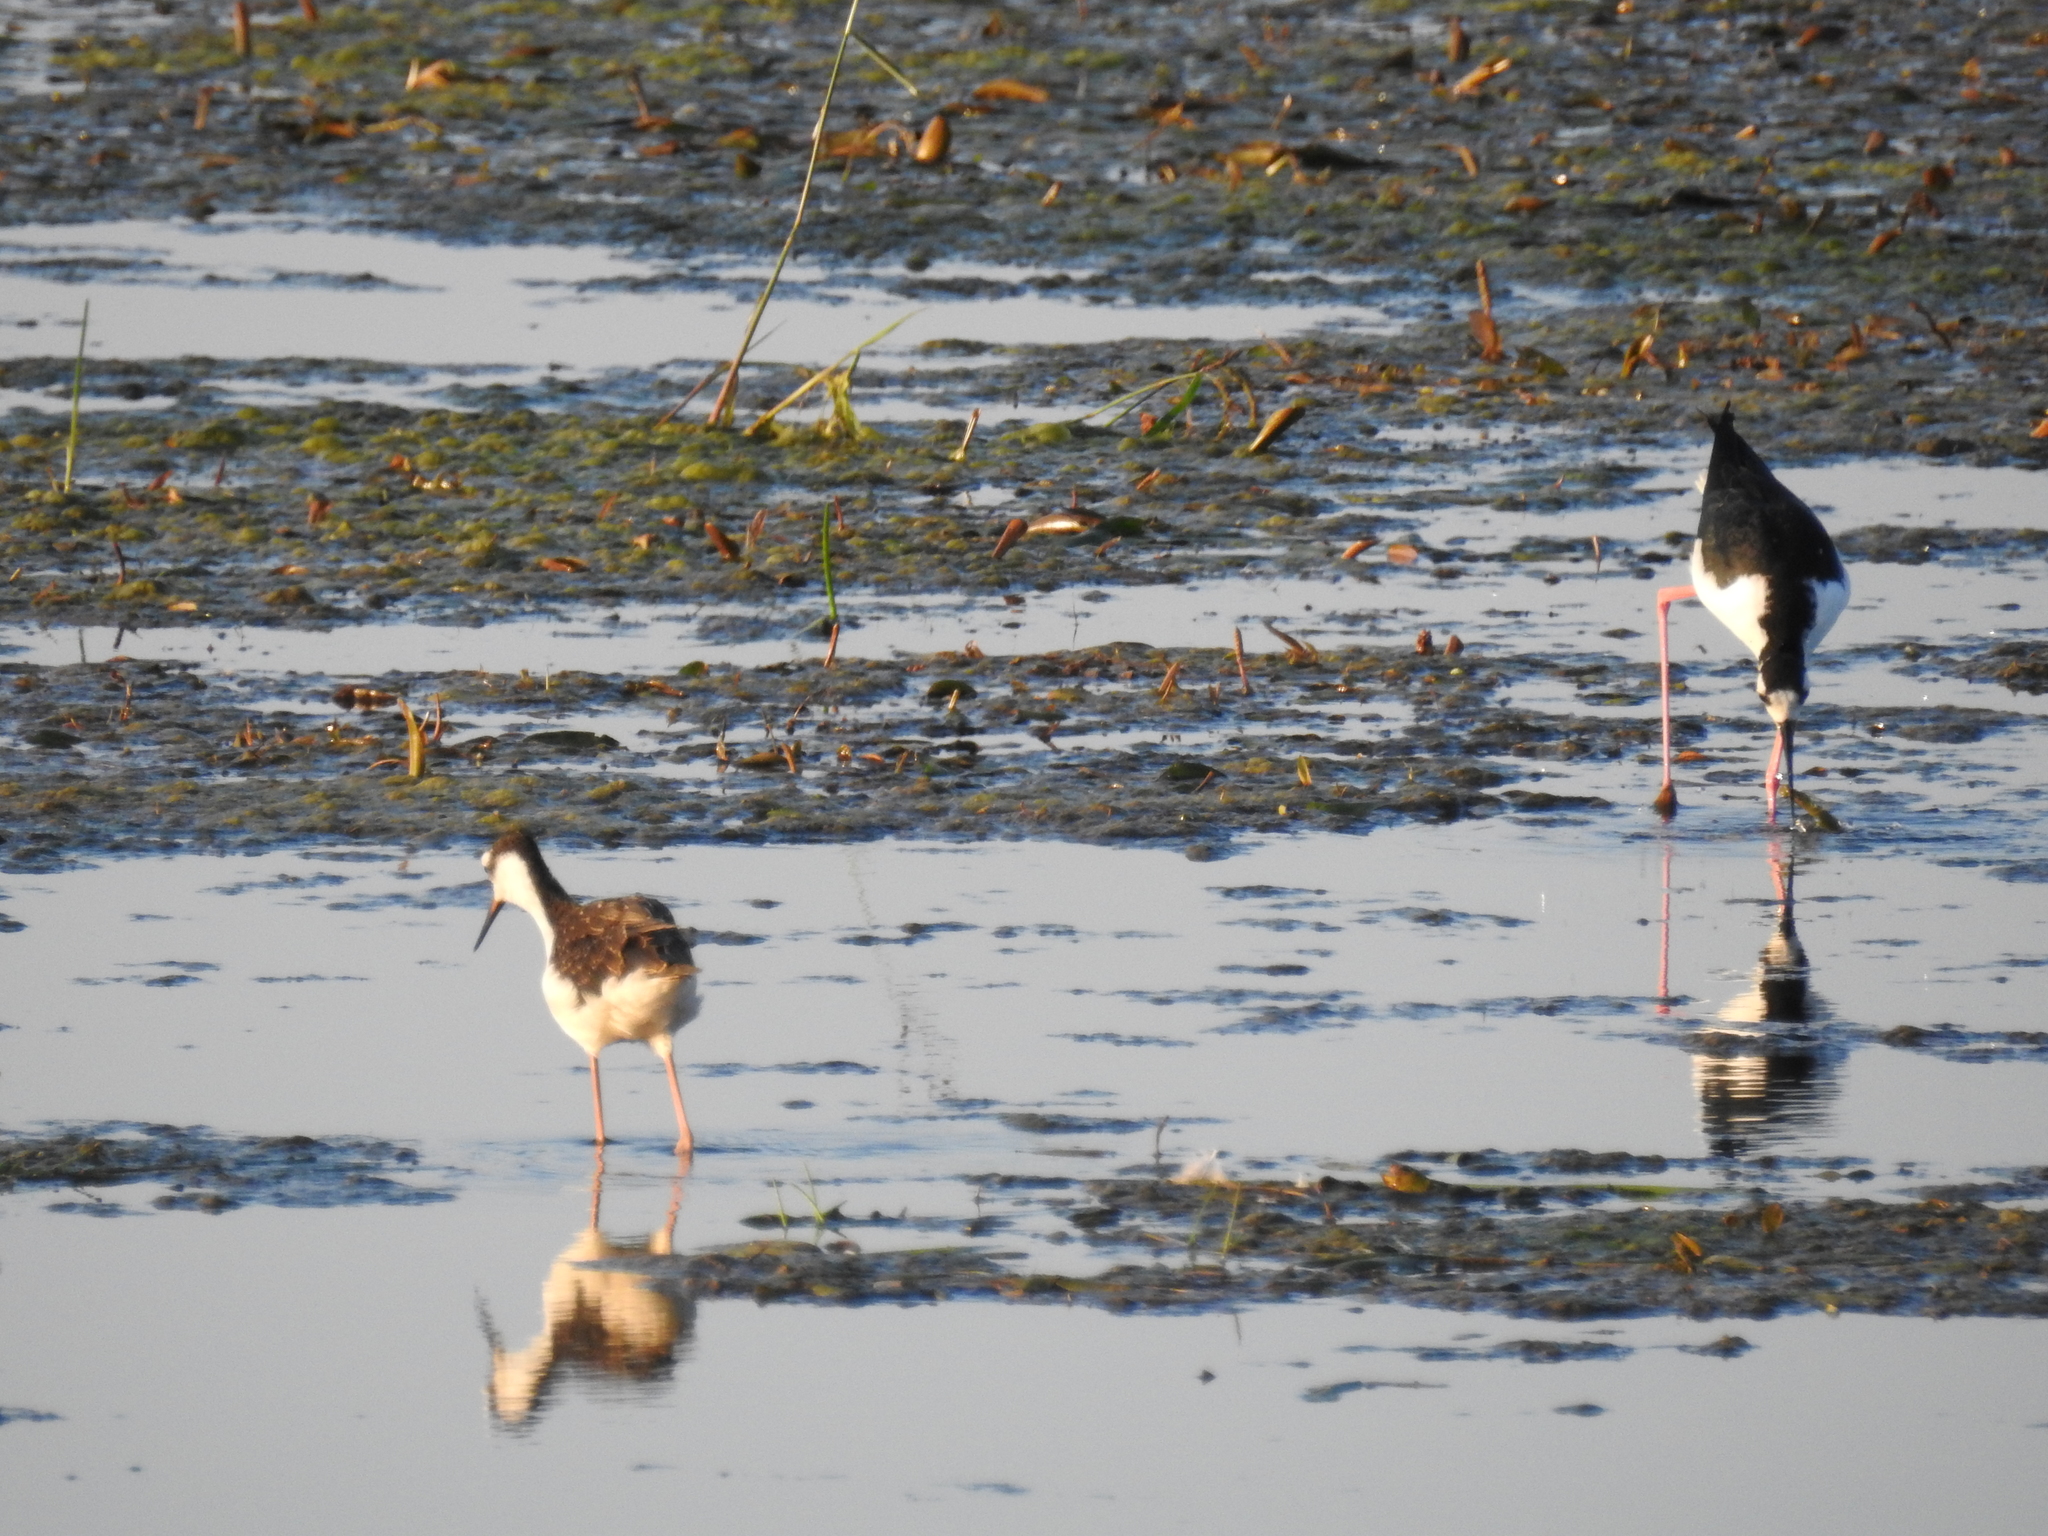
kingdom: Animalia
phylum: Chordata
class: Aves
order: Charadriiformes
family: Recurvirostridae
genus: Himantopus
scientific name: Himantopus mexicanus
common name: Black-necked stilt
